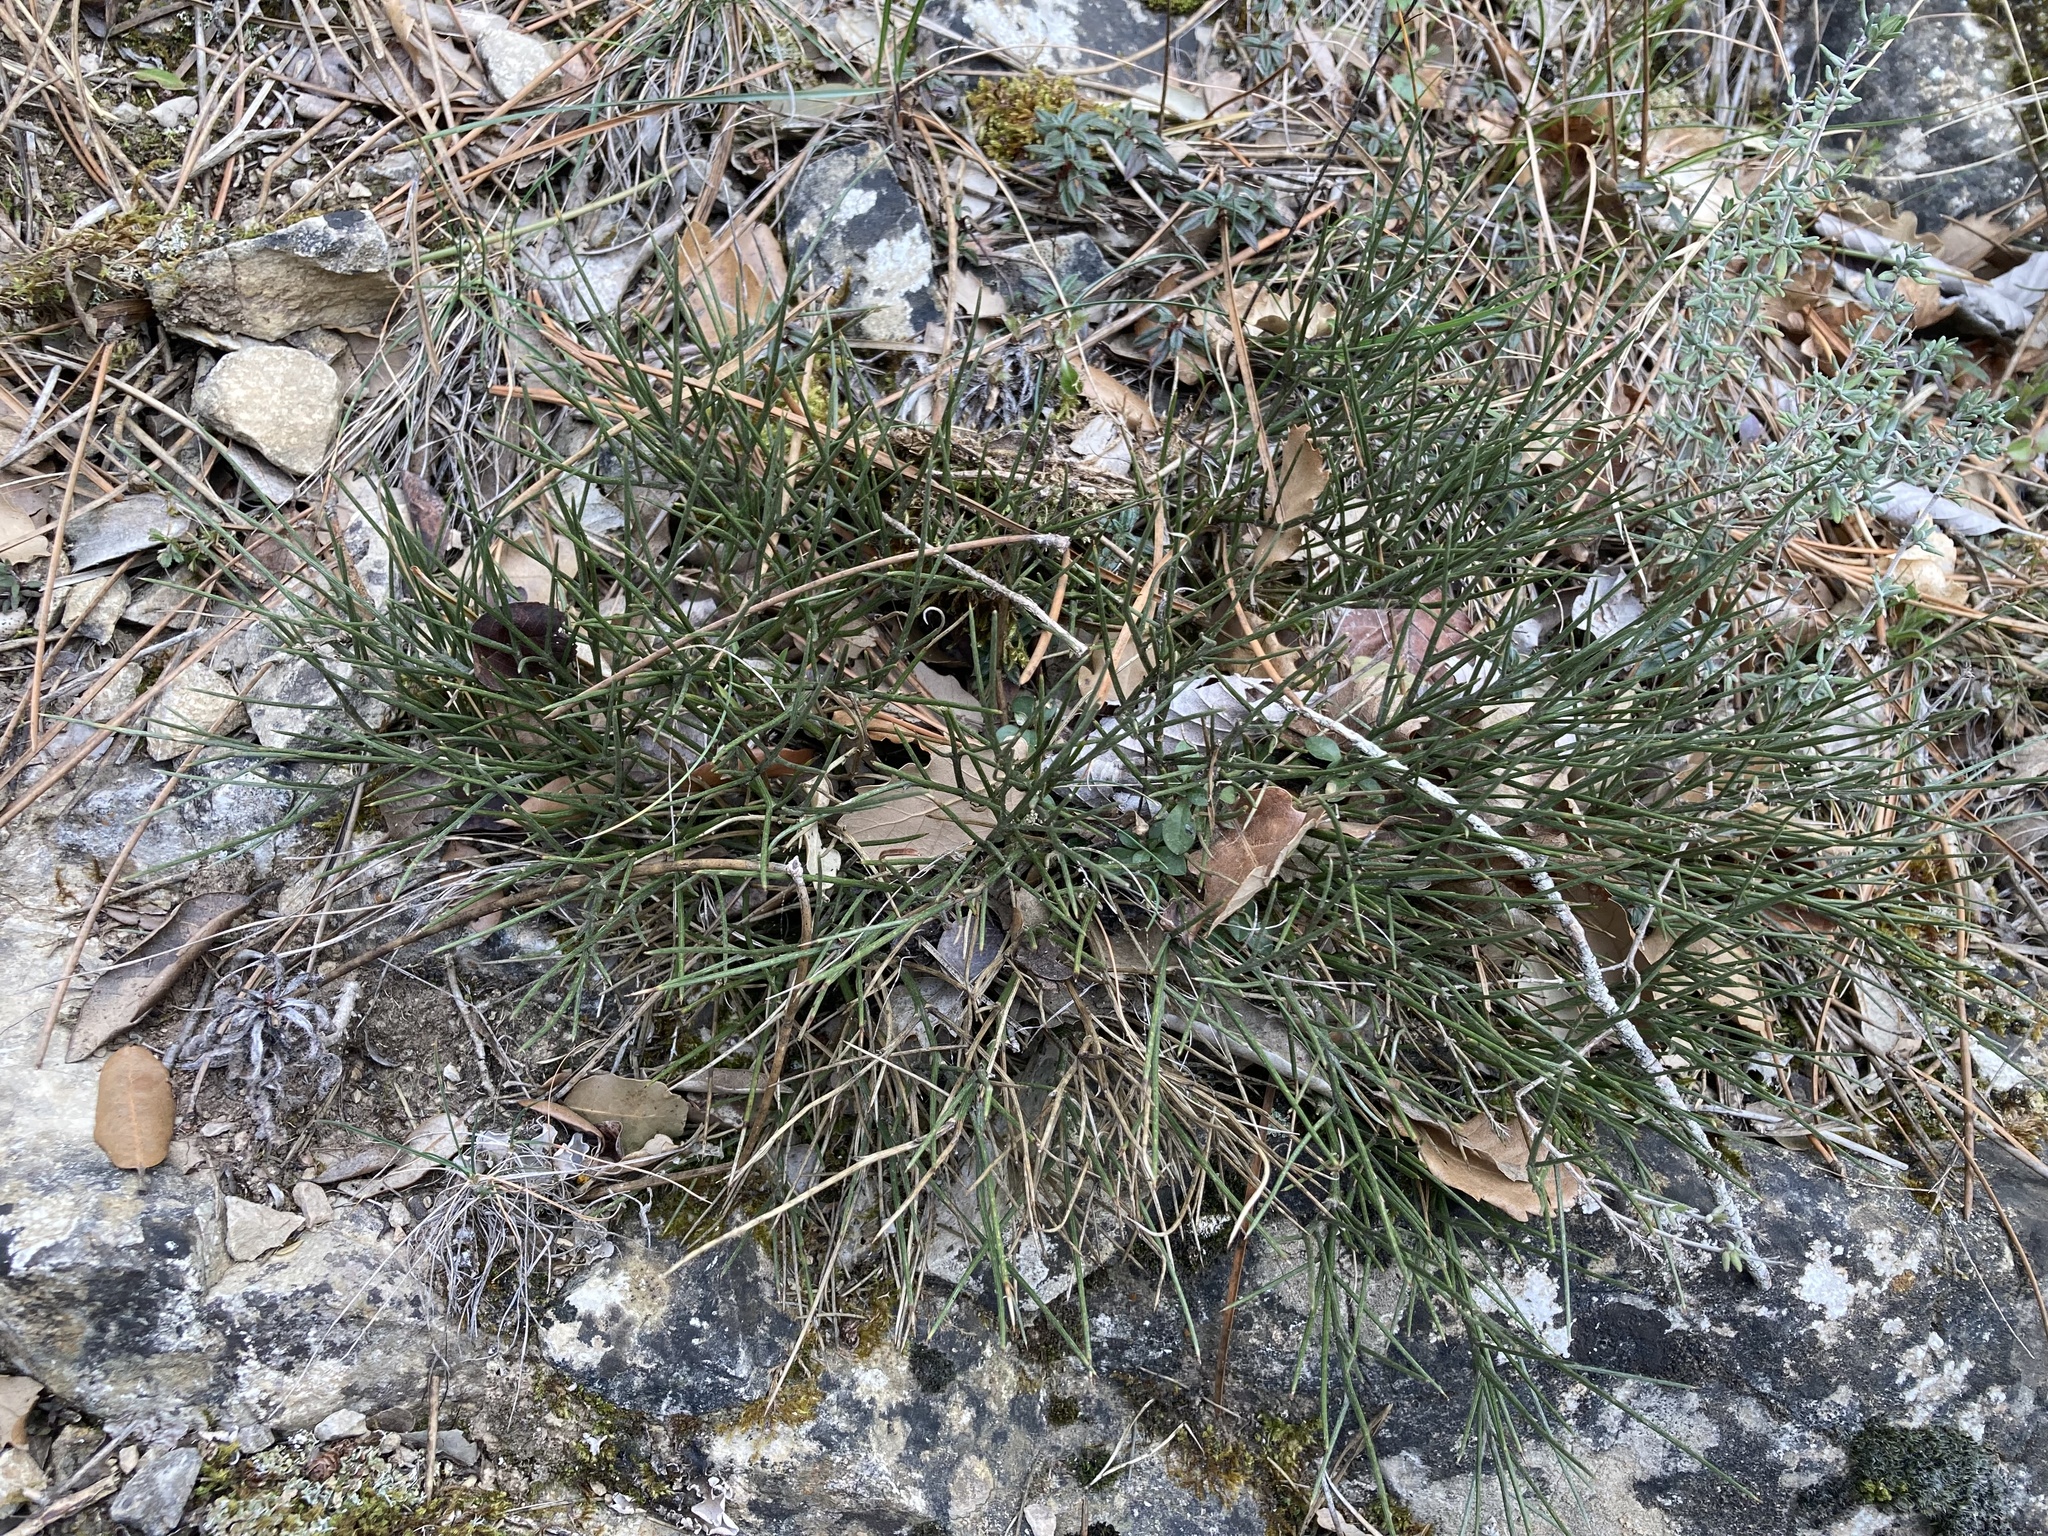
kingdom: Plantae
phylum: Tracheophyta
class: Magnoliopsida
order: Fabales
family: Fabaceae
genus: Erinacea
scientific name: Erinacea anthyllis
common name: Hedgehog-broom
